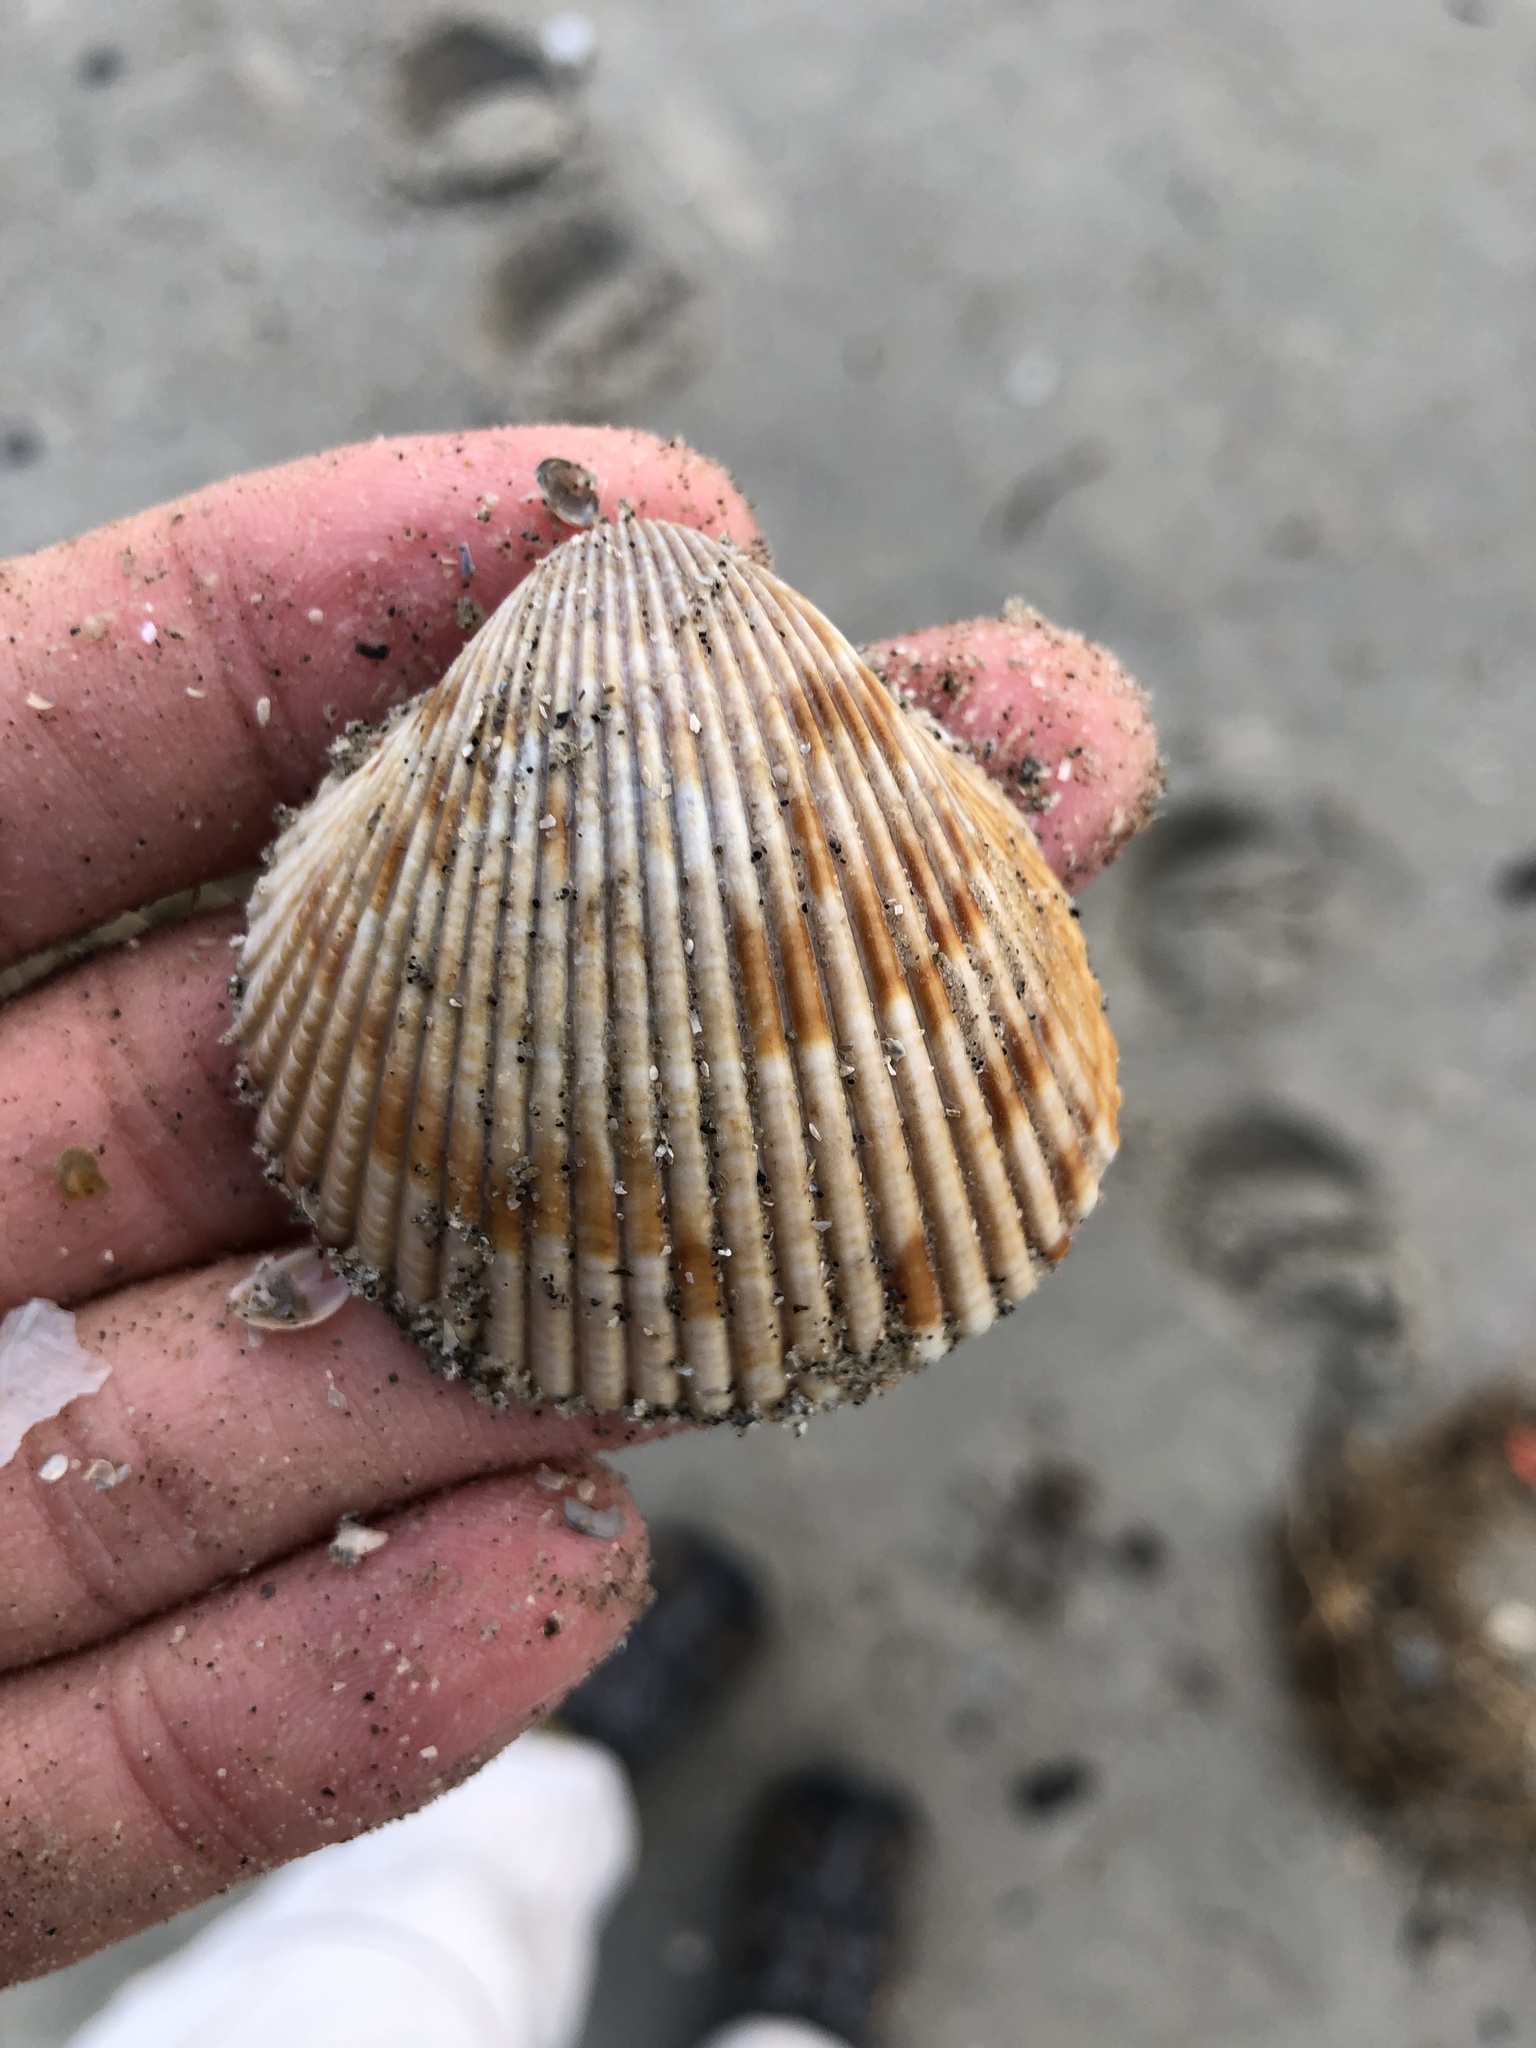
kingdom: Animalia
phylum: Mollusca
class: Bivalvia
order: Cardiida
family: Cardiidae
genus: Dinocardium
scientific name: Dinocardium robustum
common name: Atlantic giant cockle
